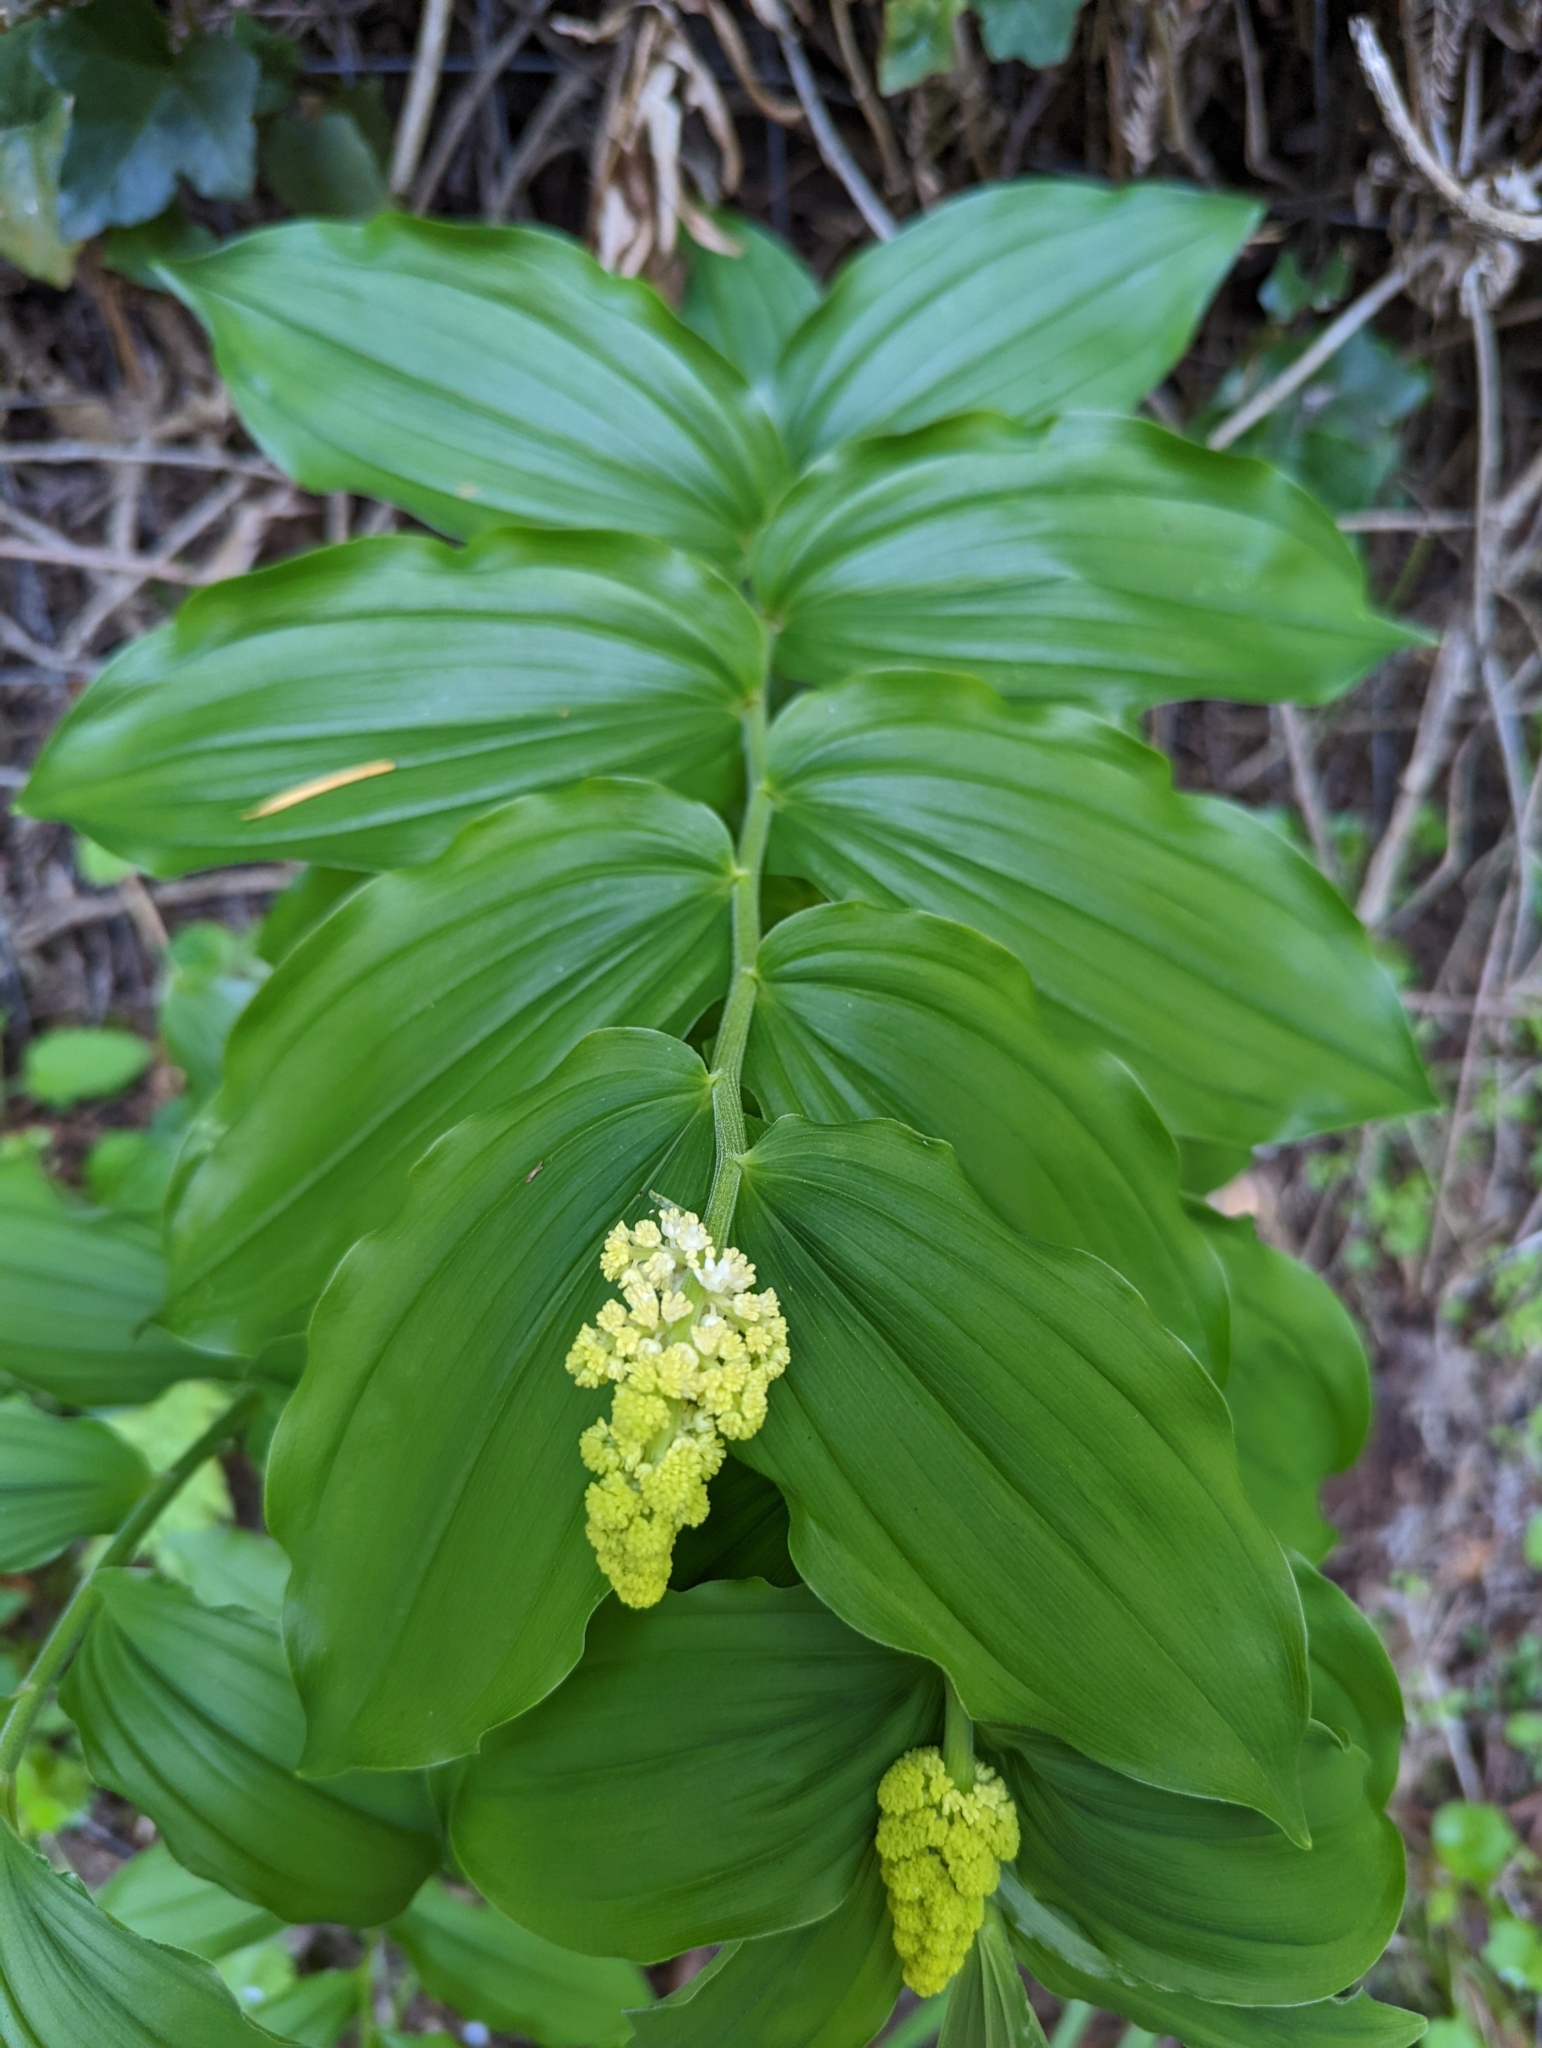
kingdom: Plantae
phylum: Tracheophyta
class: Liliopsida
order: Asparagales
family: Asparagaceae
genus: Maianthemum
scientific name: Maianthemum racemosum
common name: False spikenard
